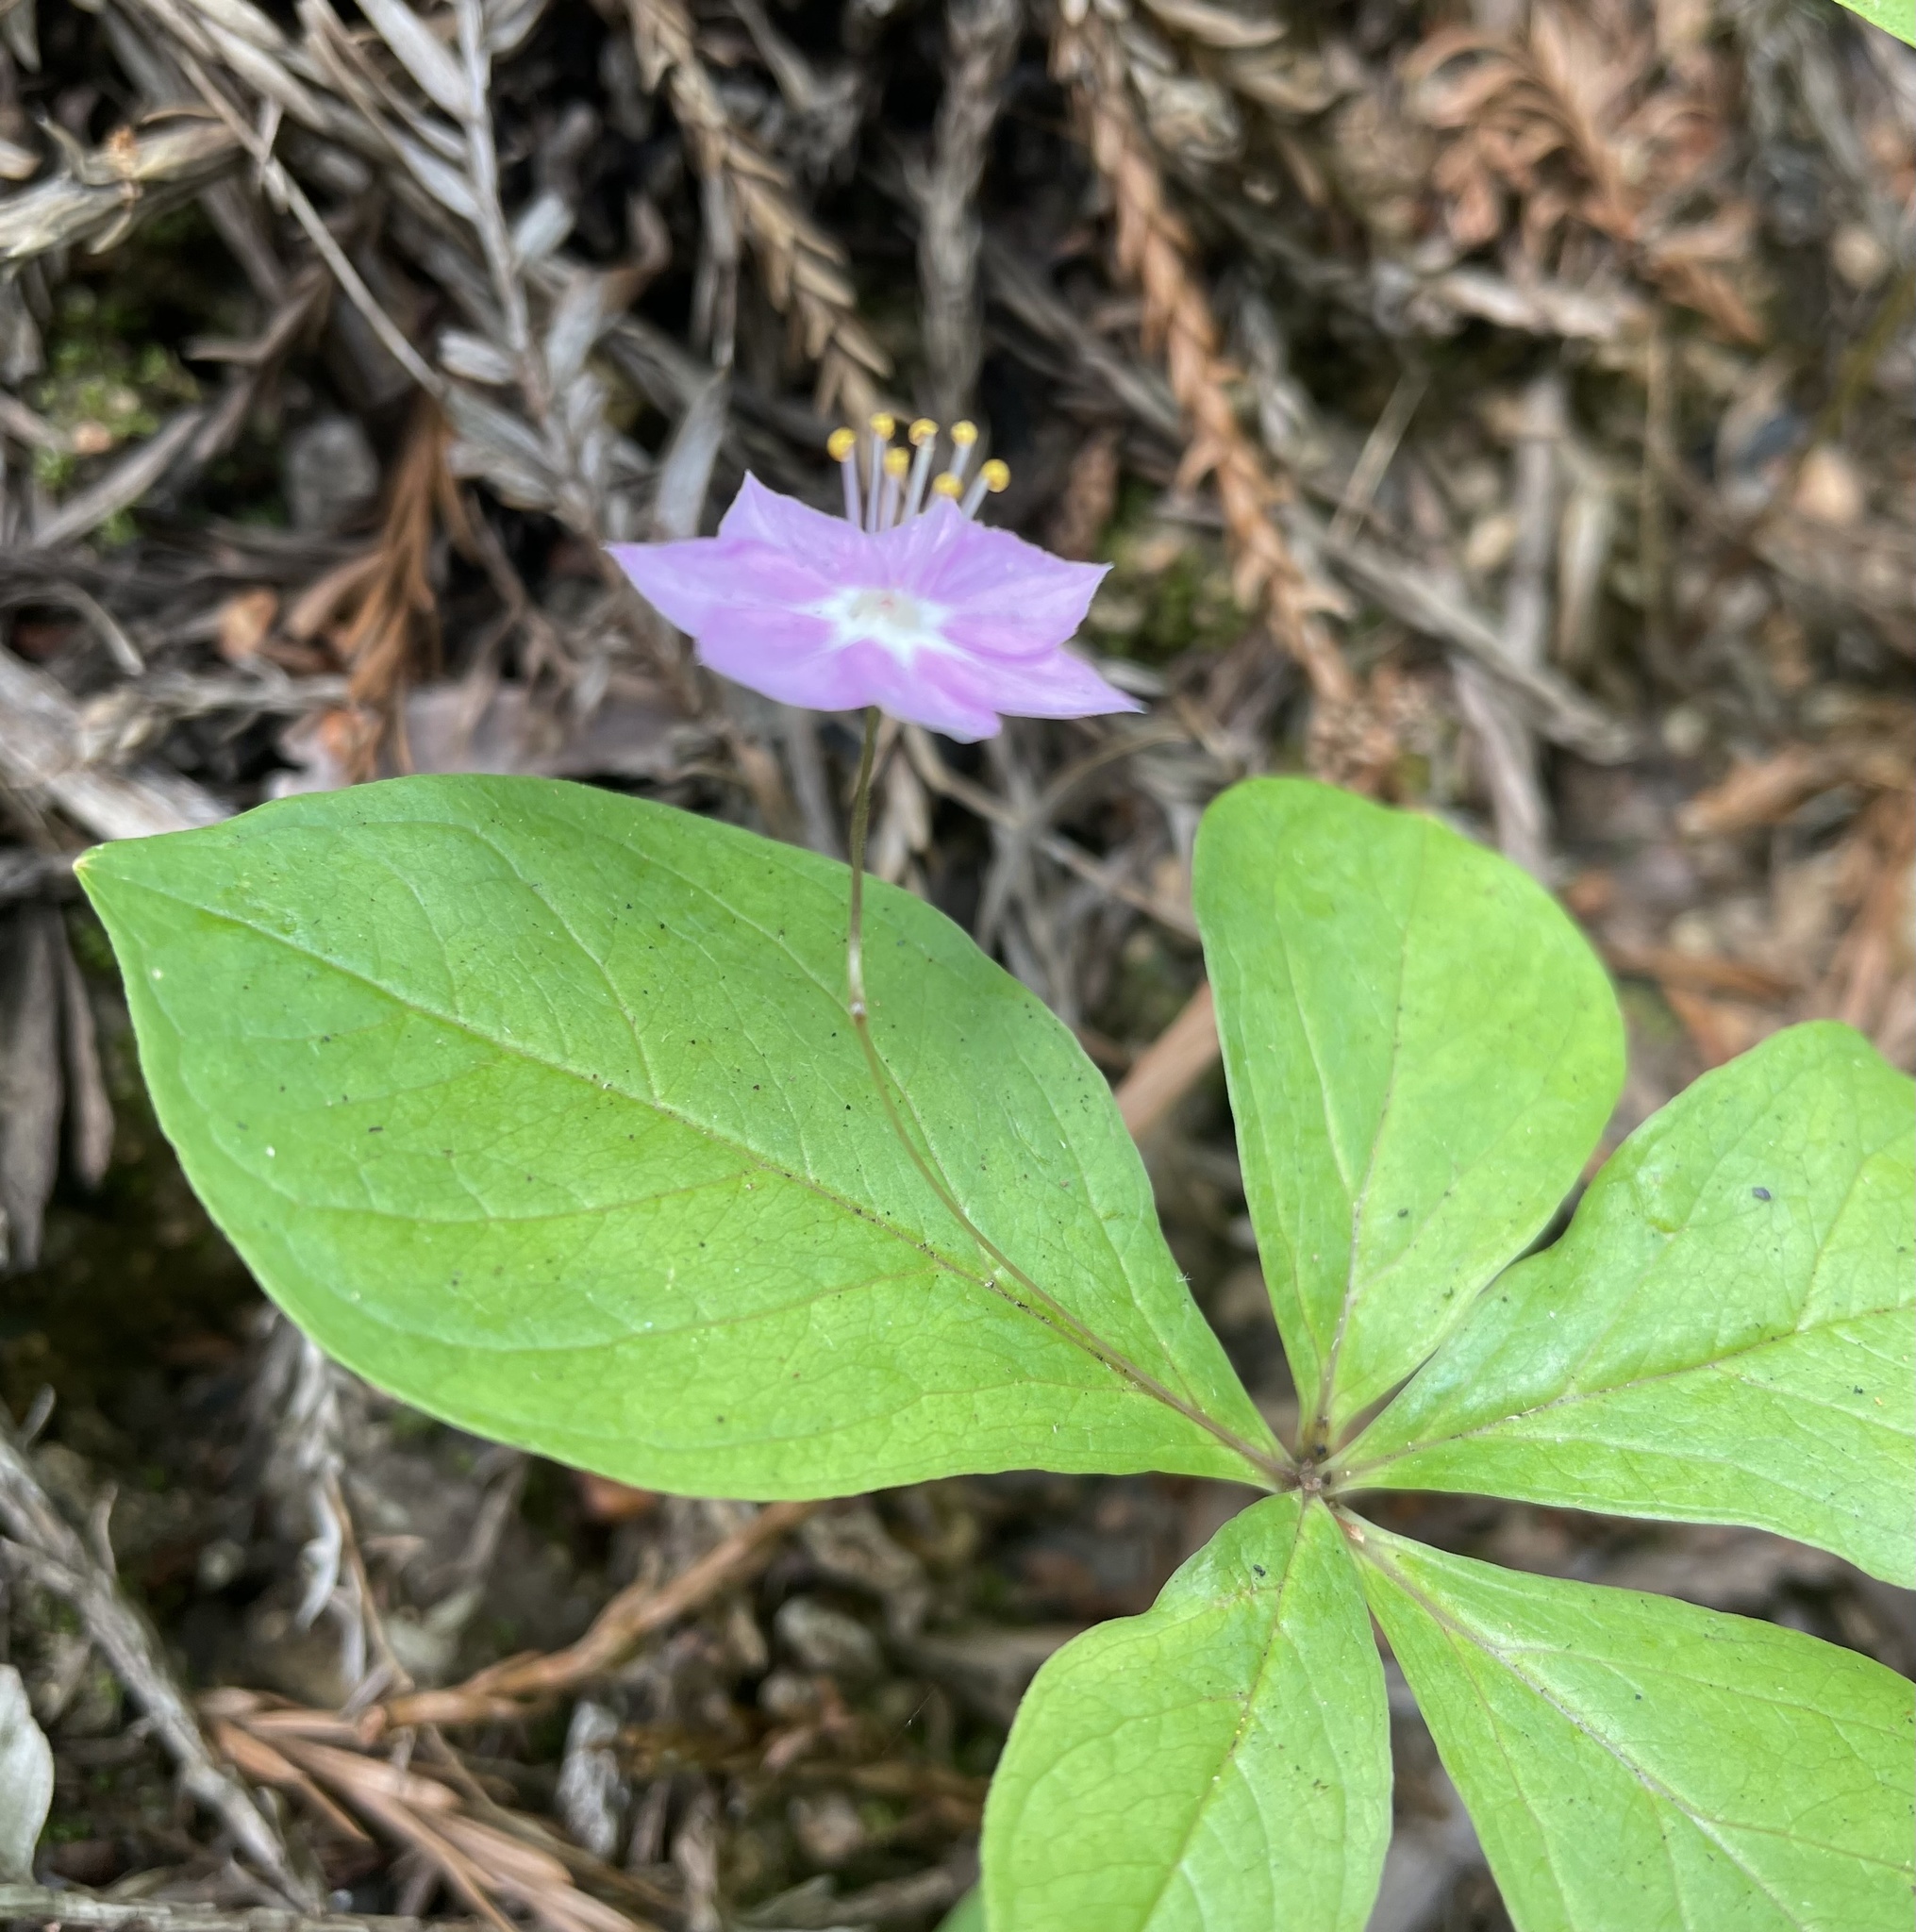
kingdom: Plantae
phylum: Tracheophyta
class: Magnoliopsida
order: Ericales
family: Primulaceae
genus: Lysimachia
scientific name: Lysimachia latifolia
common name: Pacific starflower
